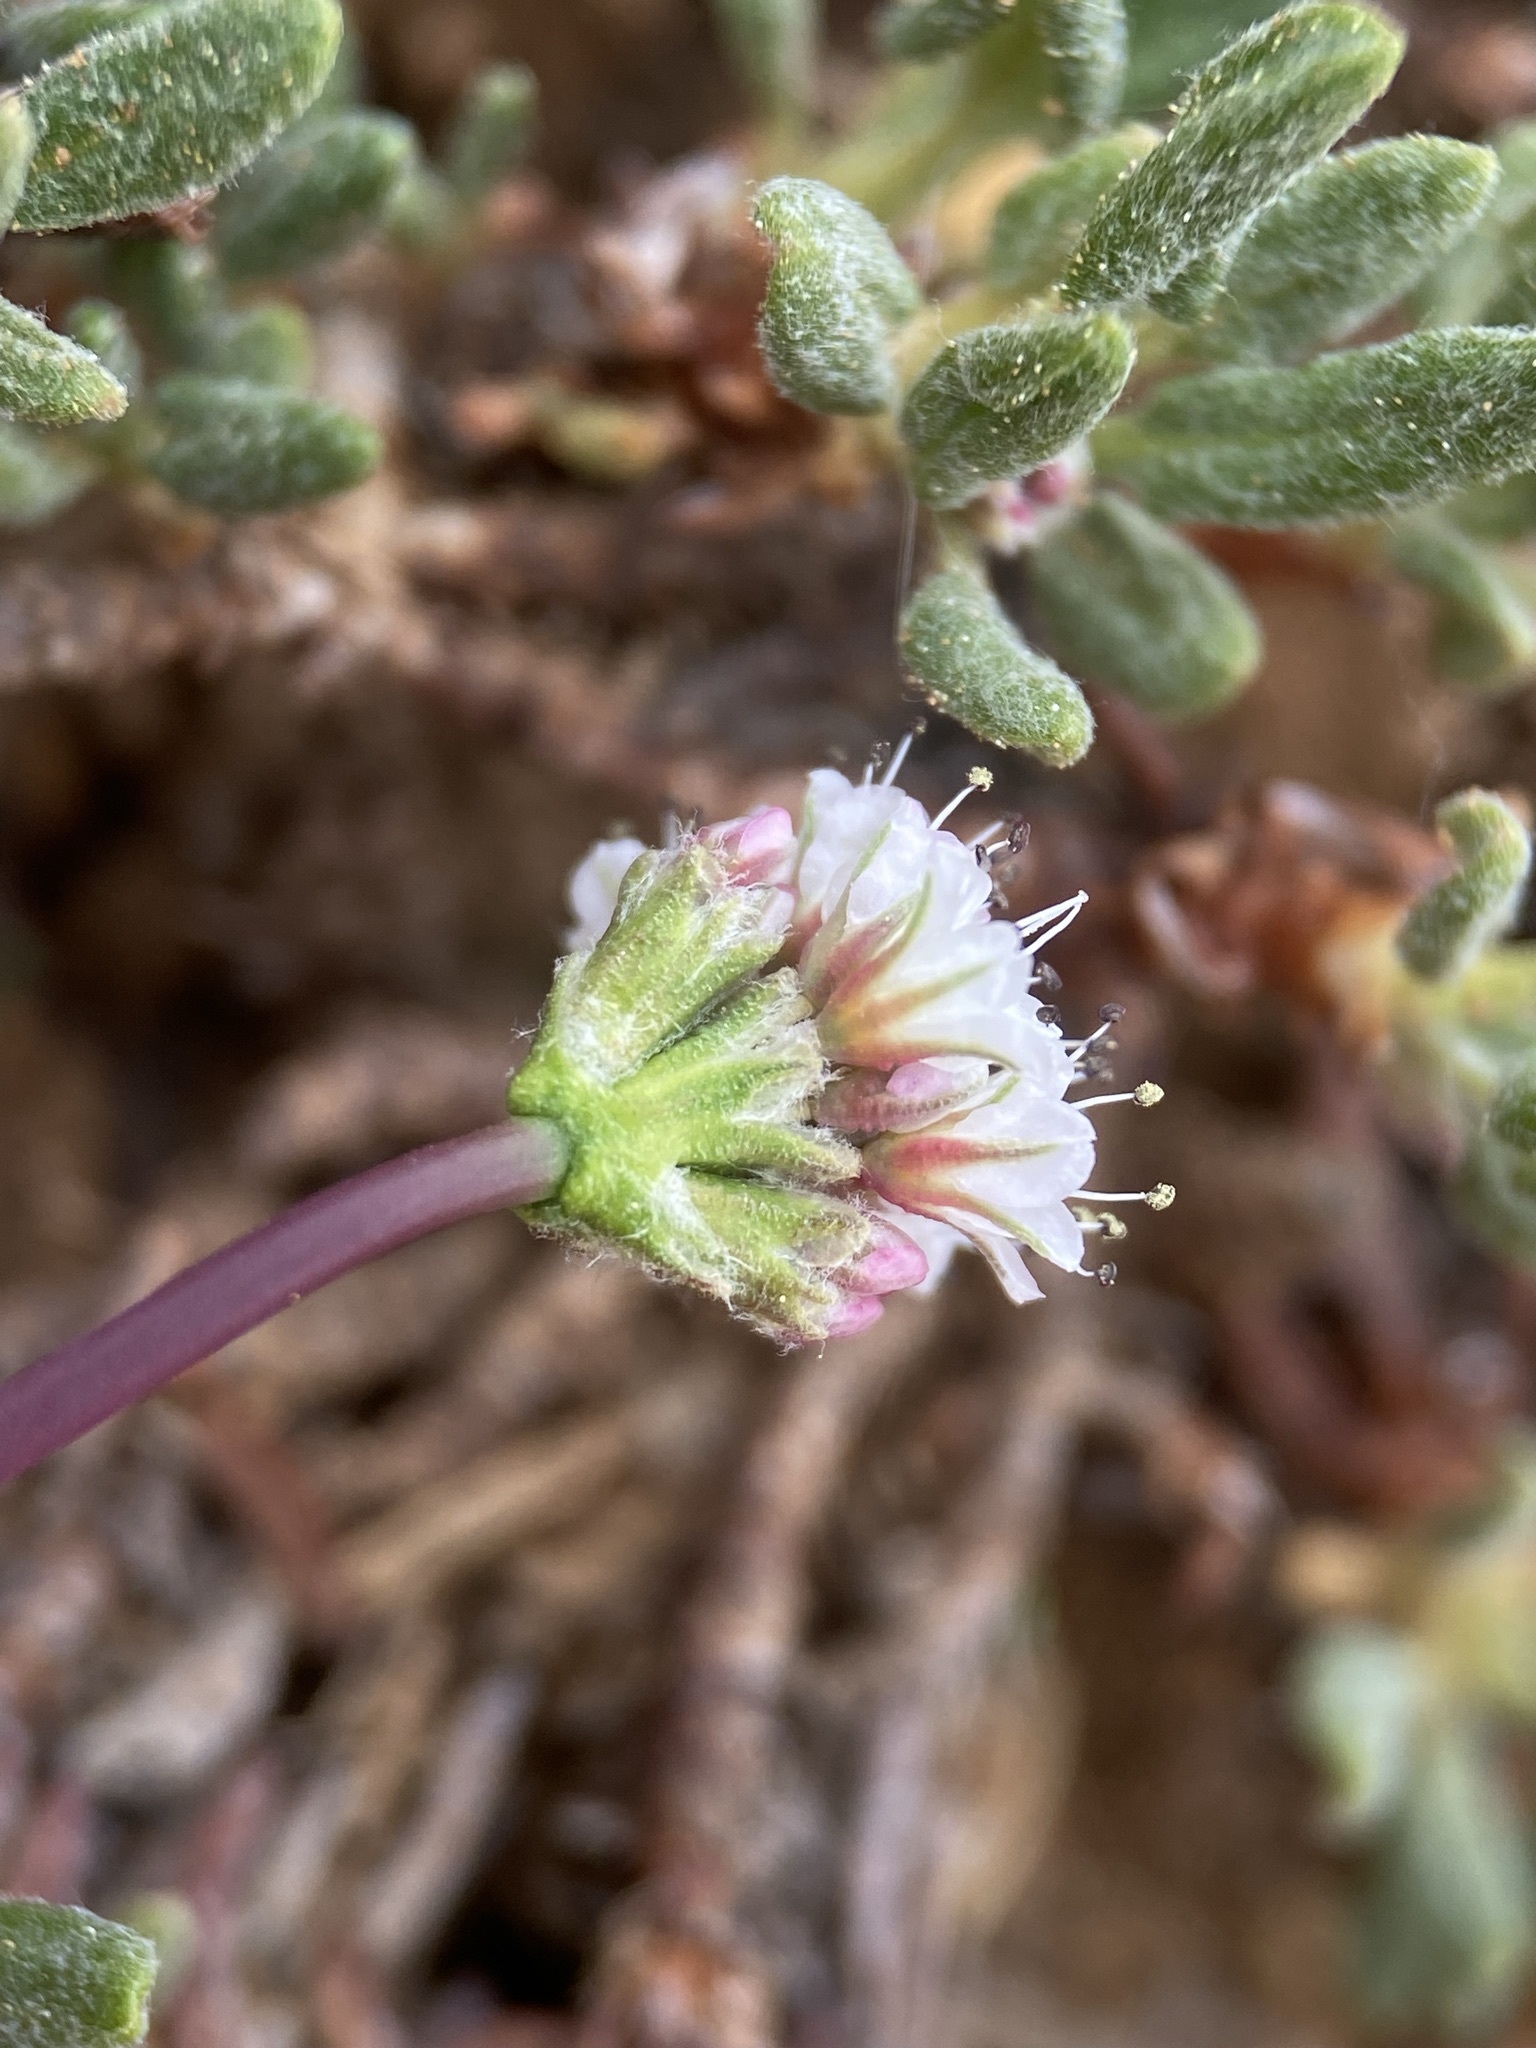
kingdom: Plantae
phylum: Tracheophyta
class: Magnoliopsida
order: Caryophyllales
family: Polygonaceae
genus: Eriogonum
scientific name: Eriogonum panguicense
